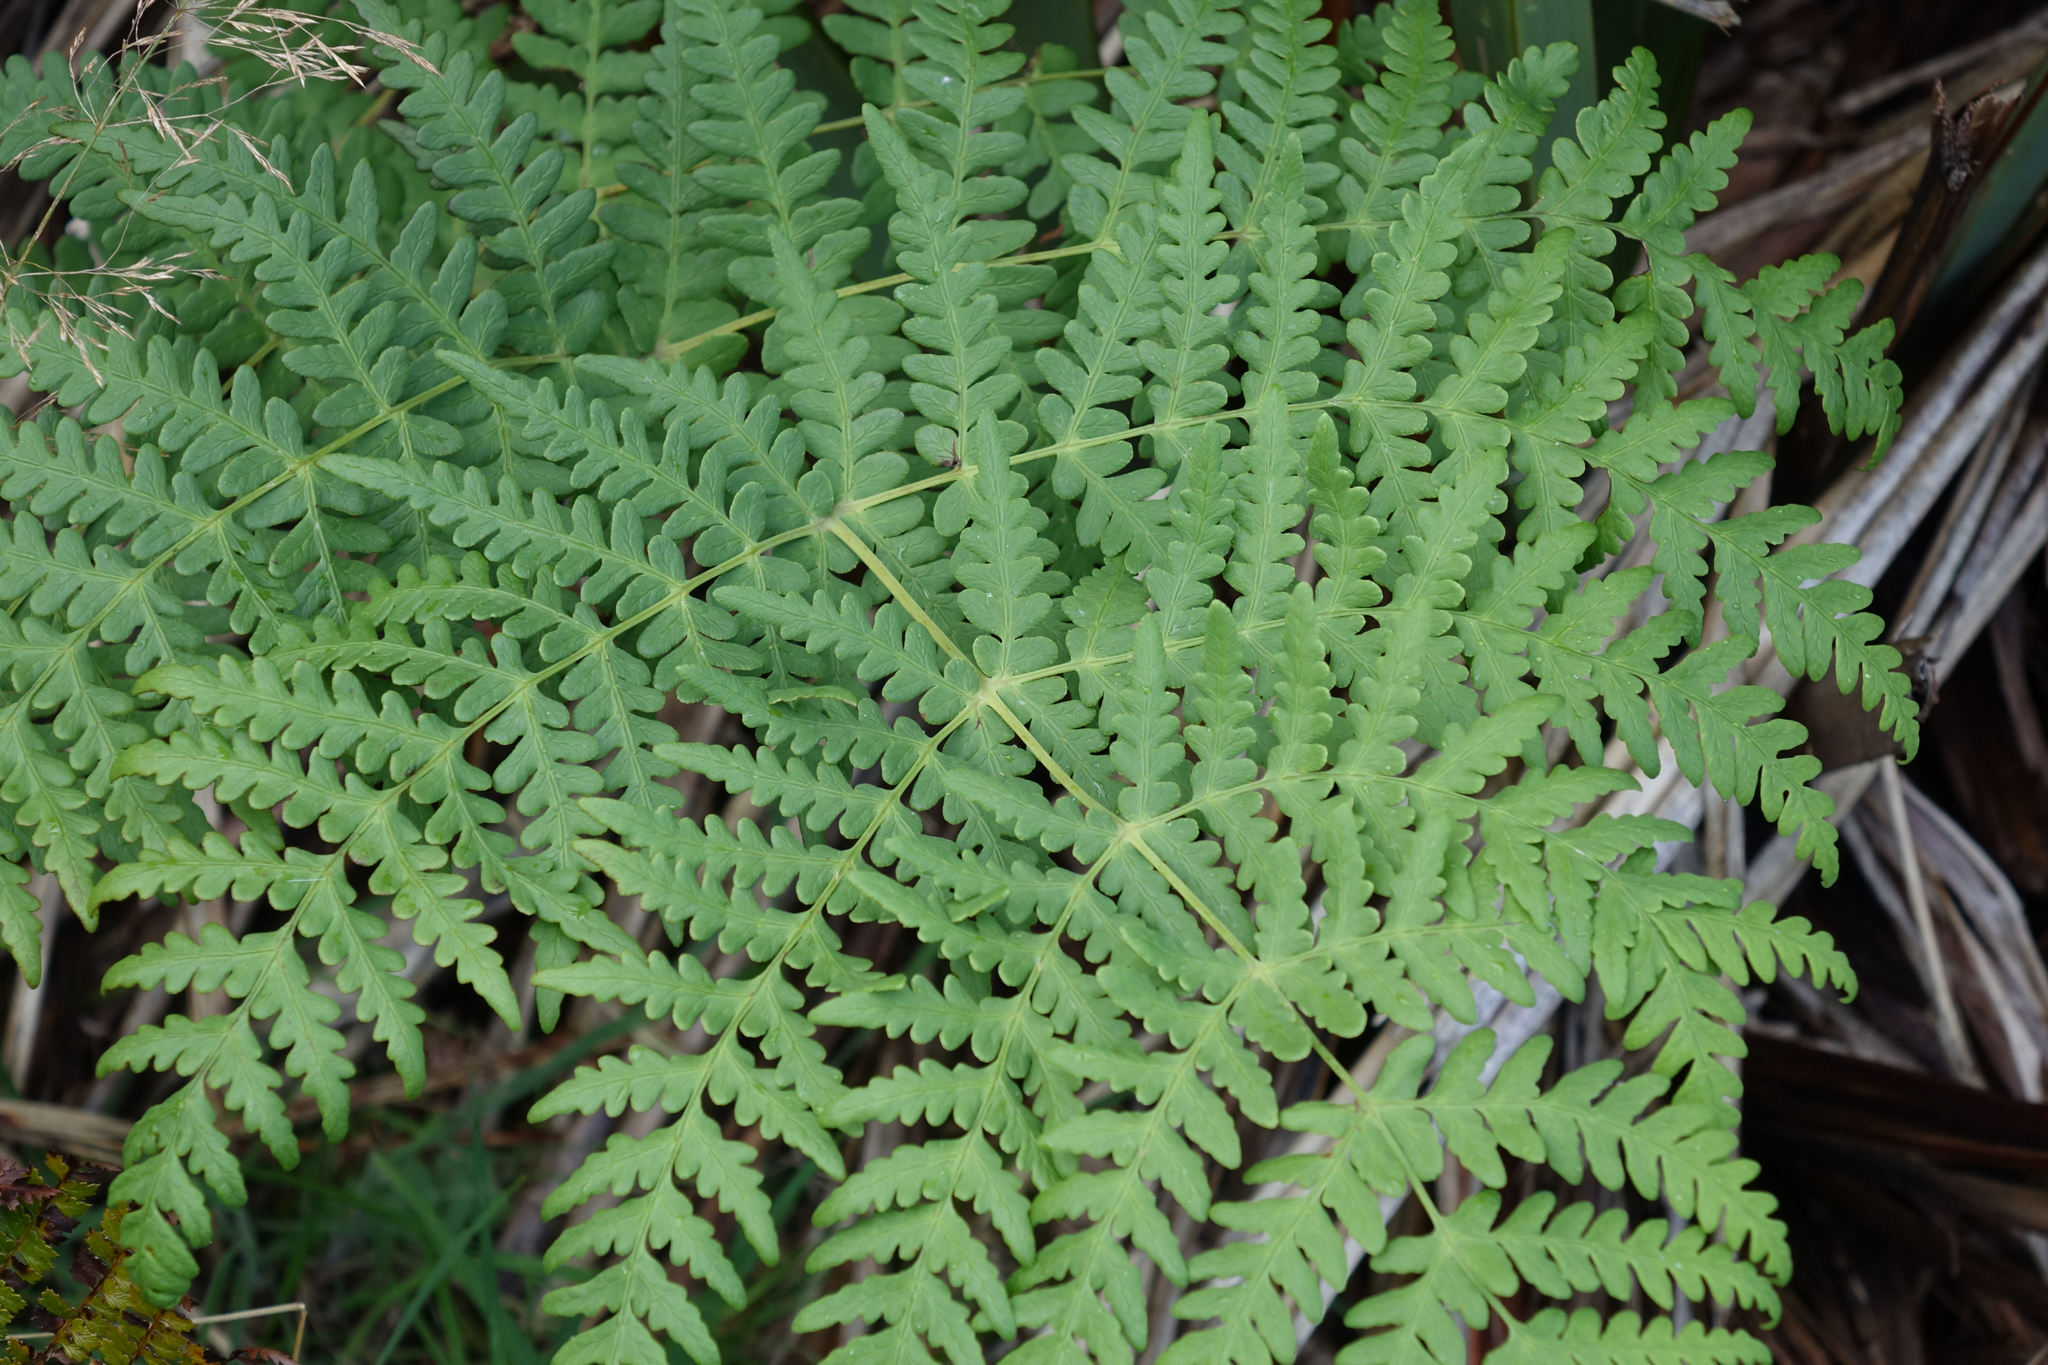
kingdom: Plantae
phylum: Tracheophyta
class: Polypodiopsida
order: Polypodiales
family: Dennstaedtiaceae
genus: Histiopteris
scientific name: Histiopteris incisa
